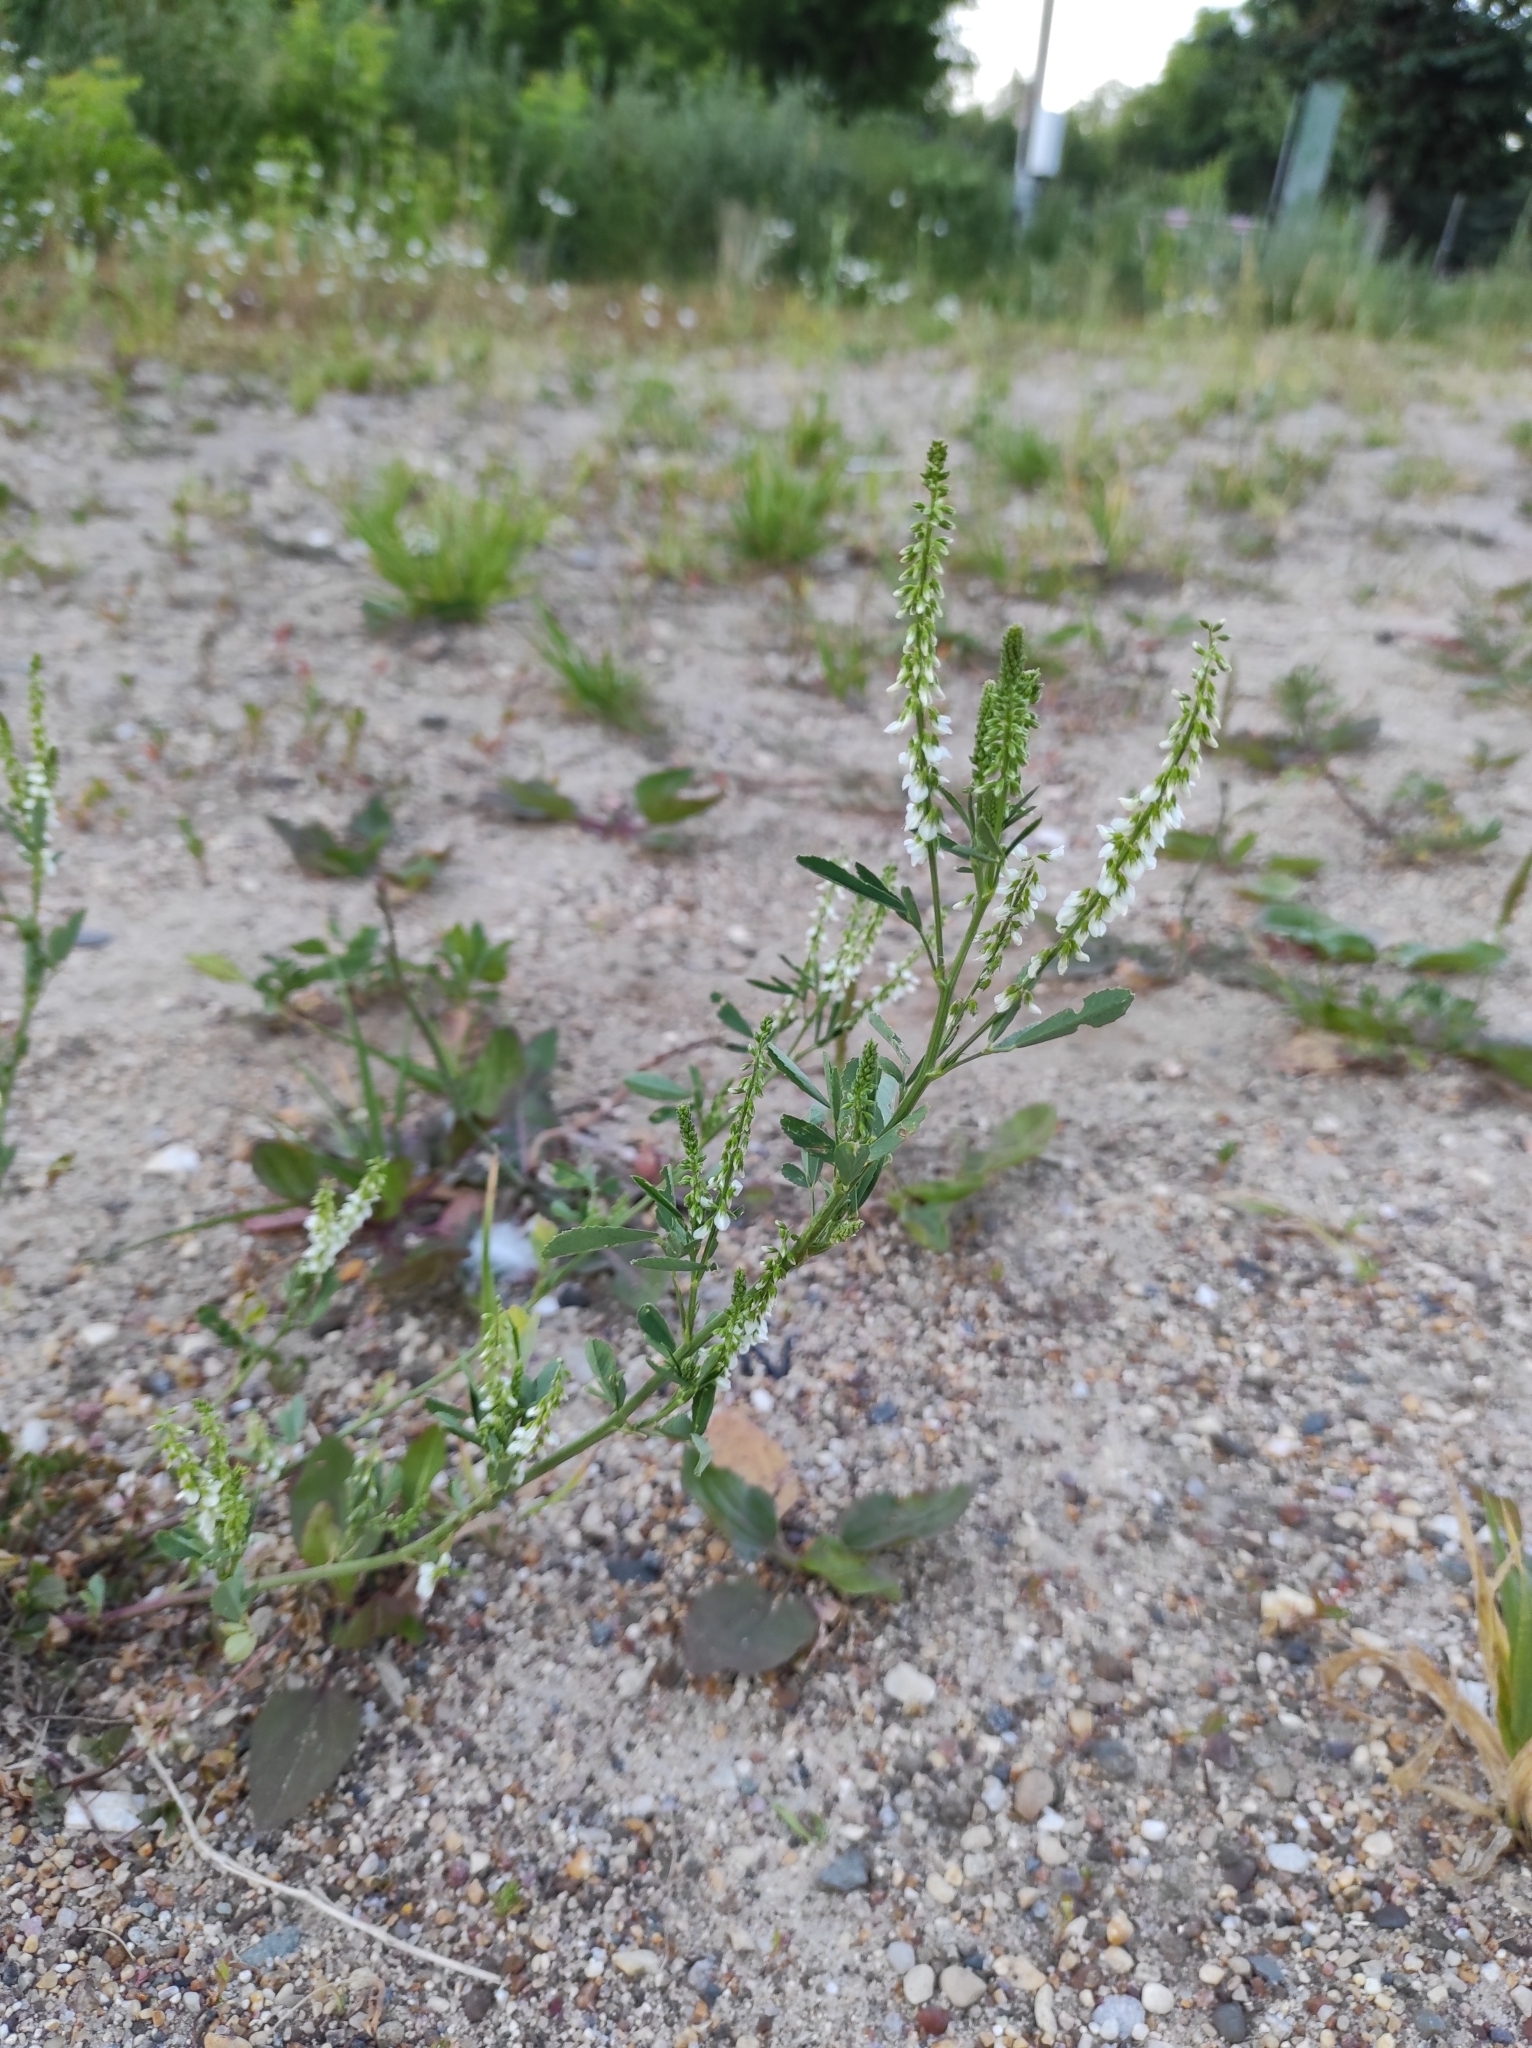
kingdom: Plantae
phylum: Tracheophyta
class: Magnoliopsida
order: Fabales
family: Fabaceae
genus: Melilotus
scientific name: Melilotus albus
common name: White melilot
